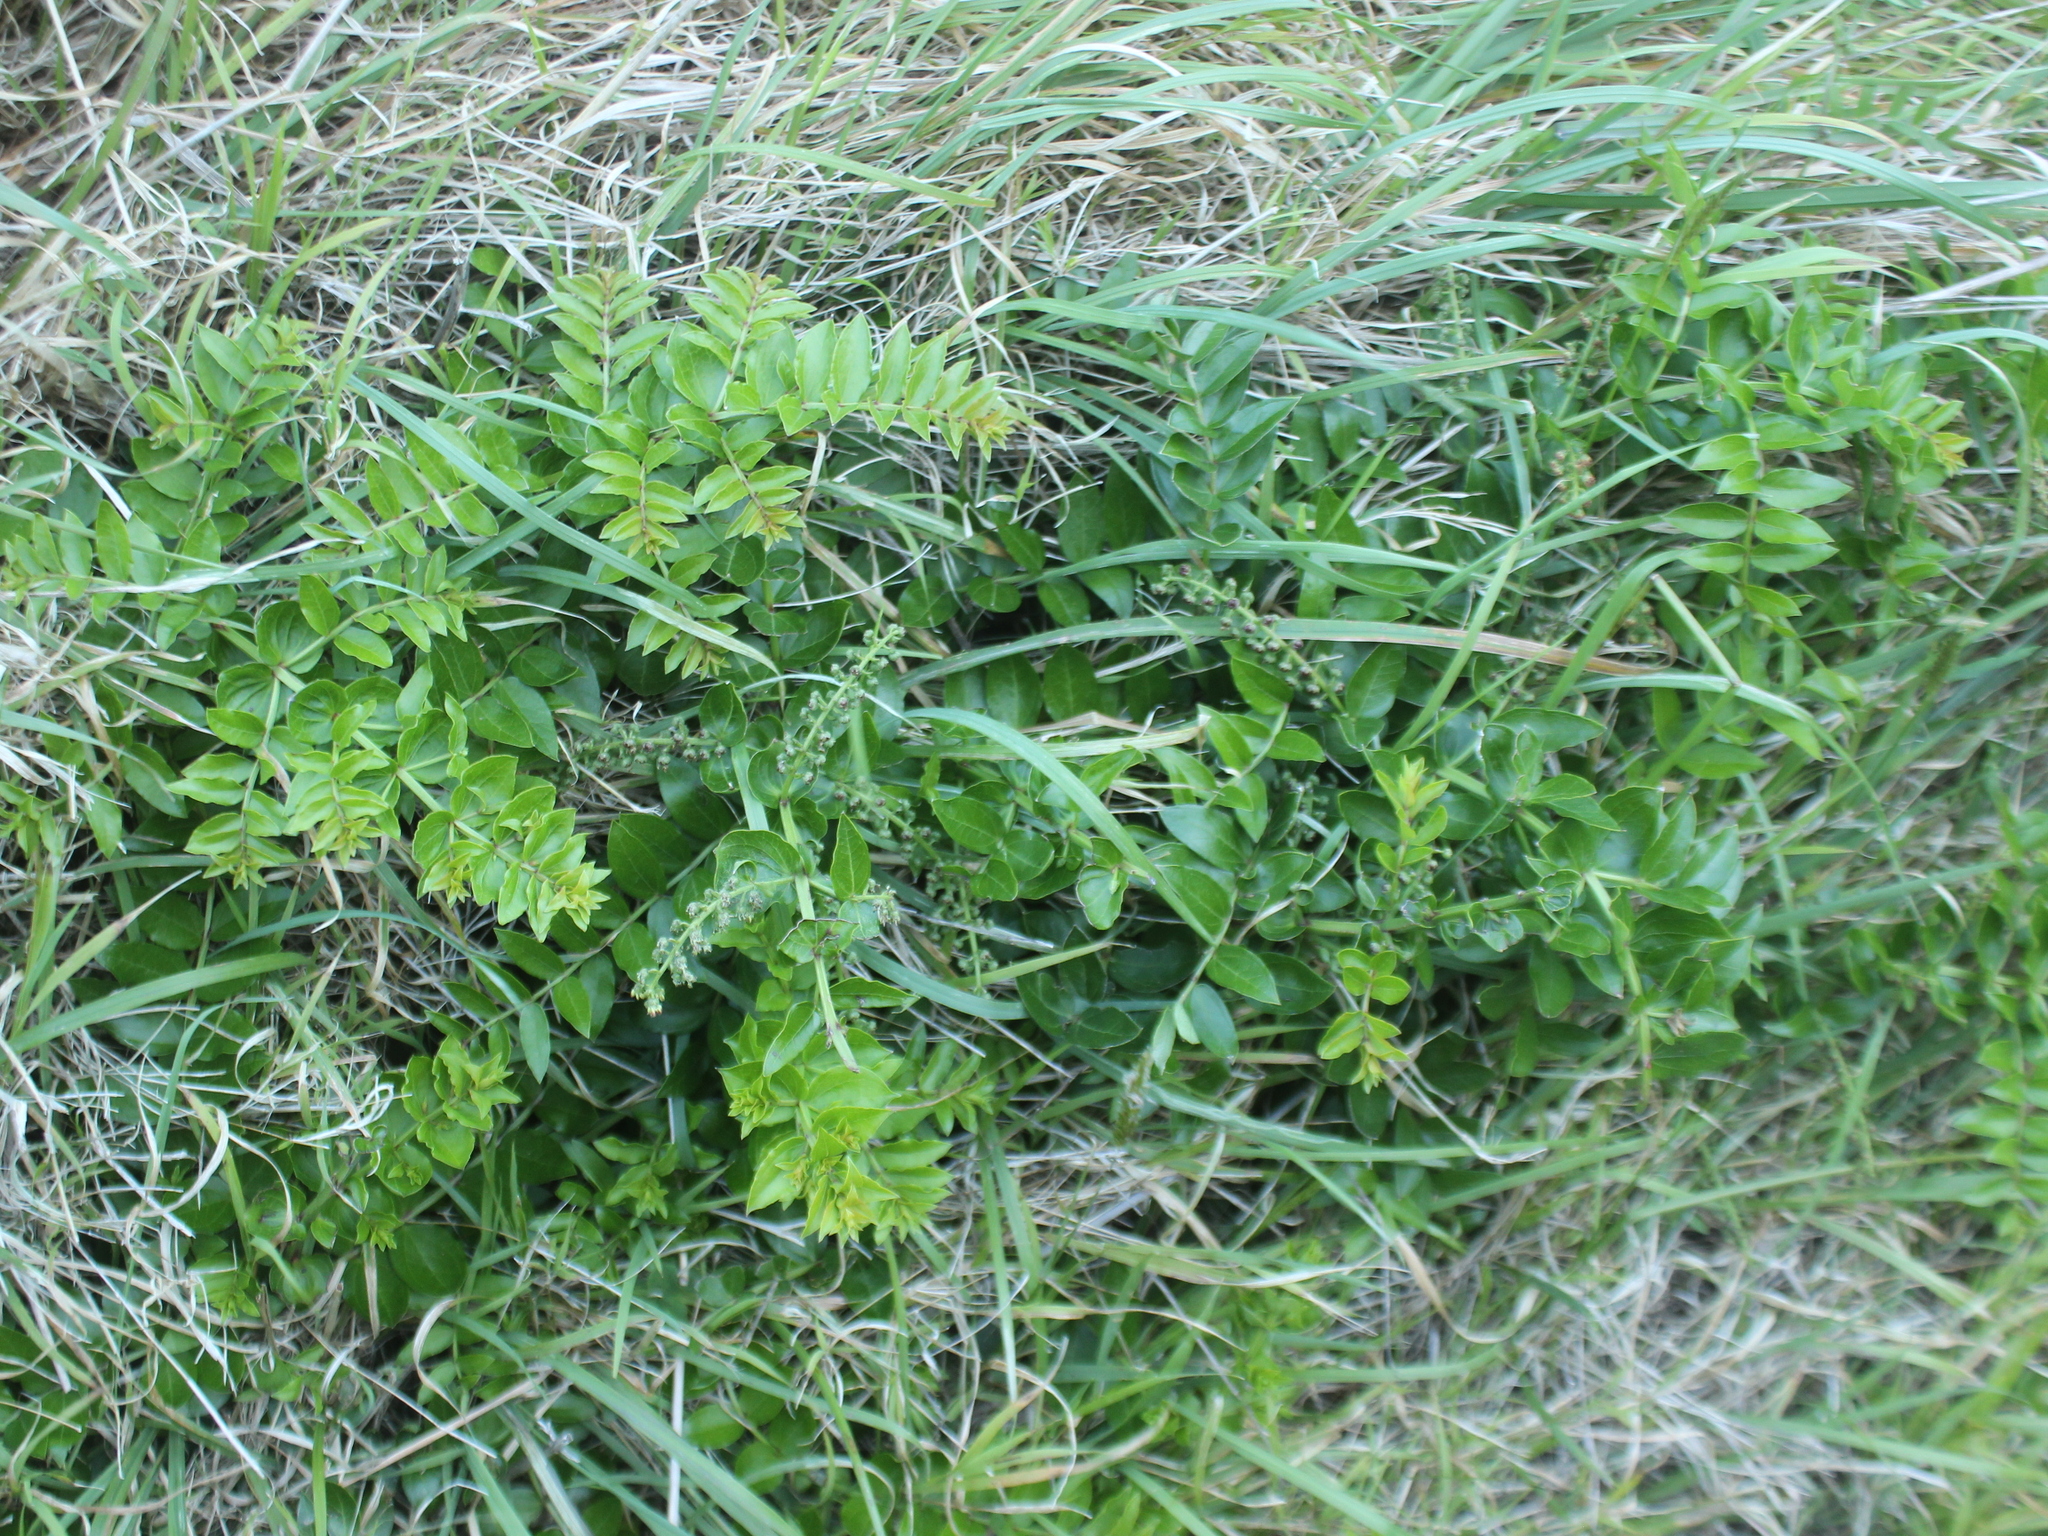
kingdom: Plantae
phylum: Tracheophyta
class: Magnoliopsida
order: Cucurbitales
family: Coriariaceae
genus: Coriaria
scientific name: Coriaria sarmentosa
